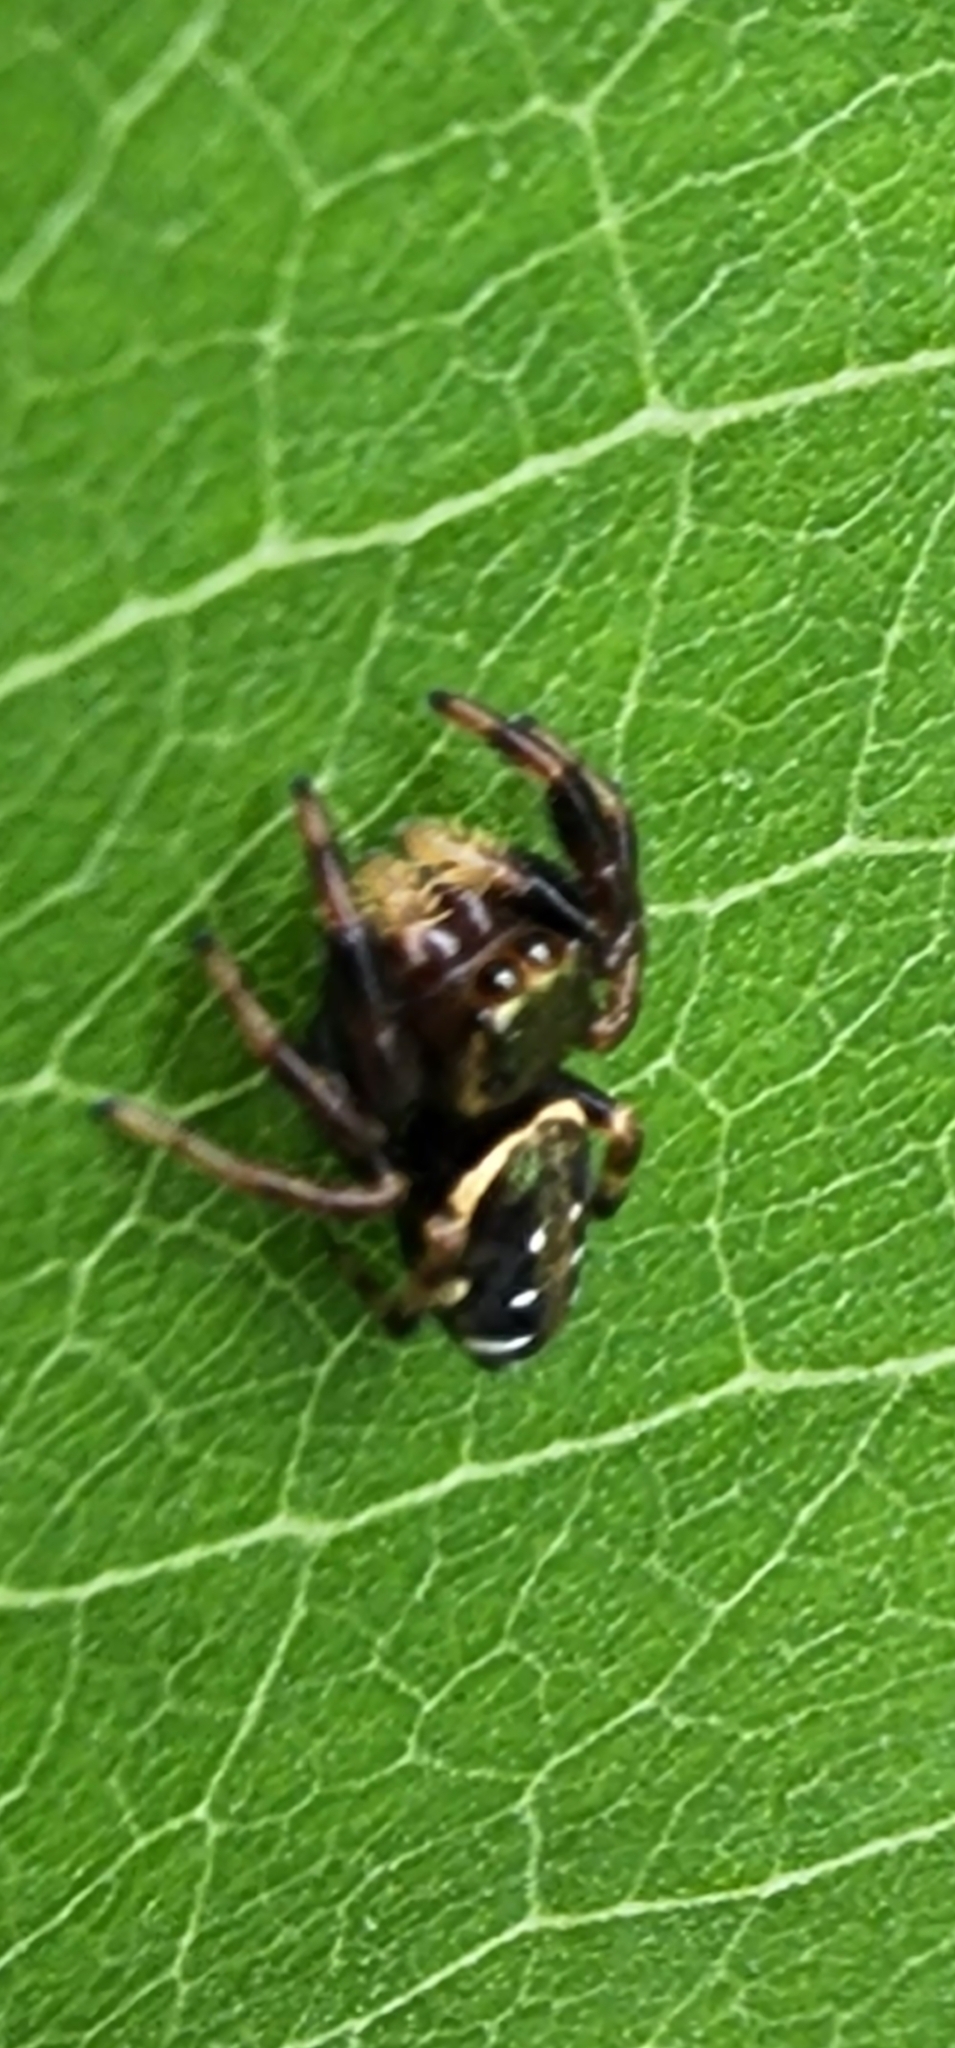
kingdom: Animalia
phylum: Arthropoda
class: Arachnida
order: Araneae
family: Salticidae
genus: Paraphidippus
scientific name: Paraphidippus aurantius
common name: Jumping spiders
